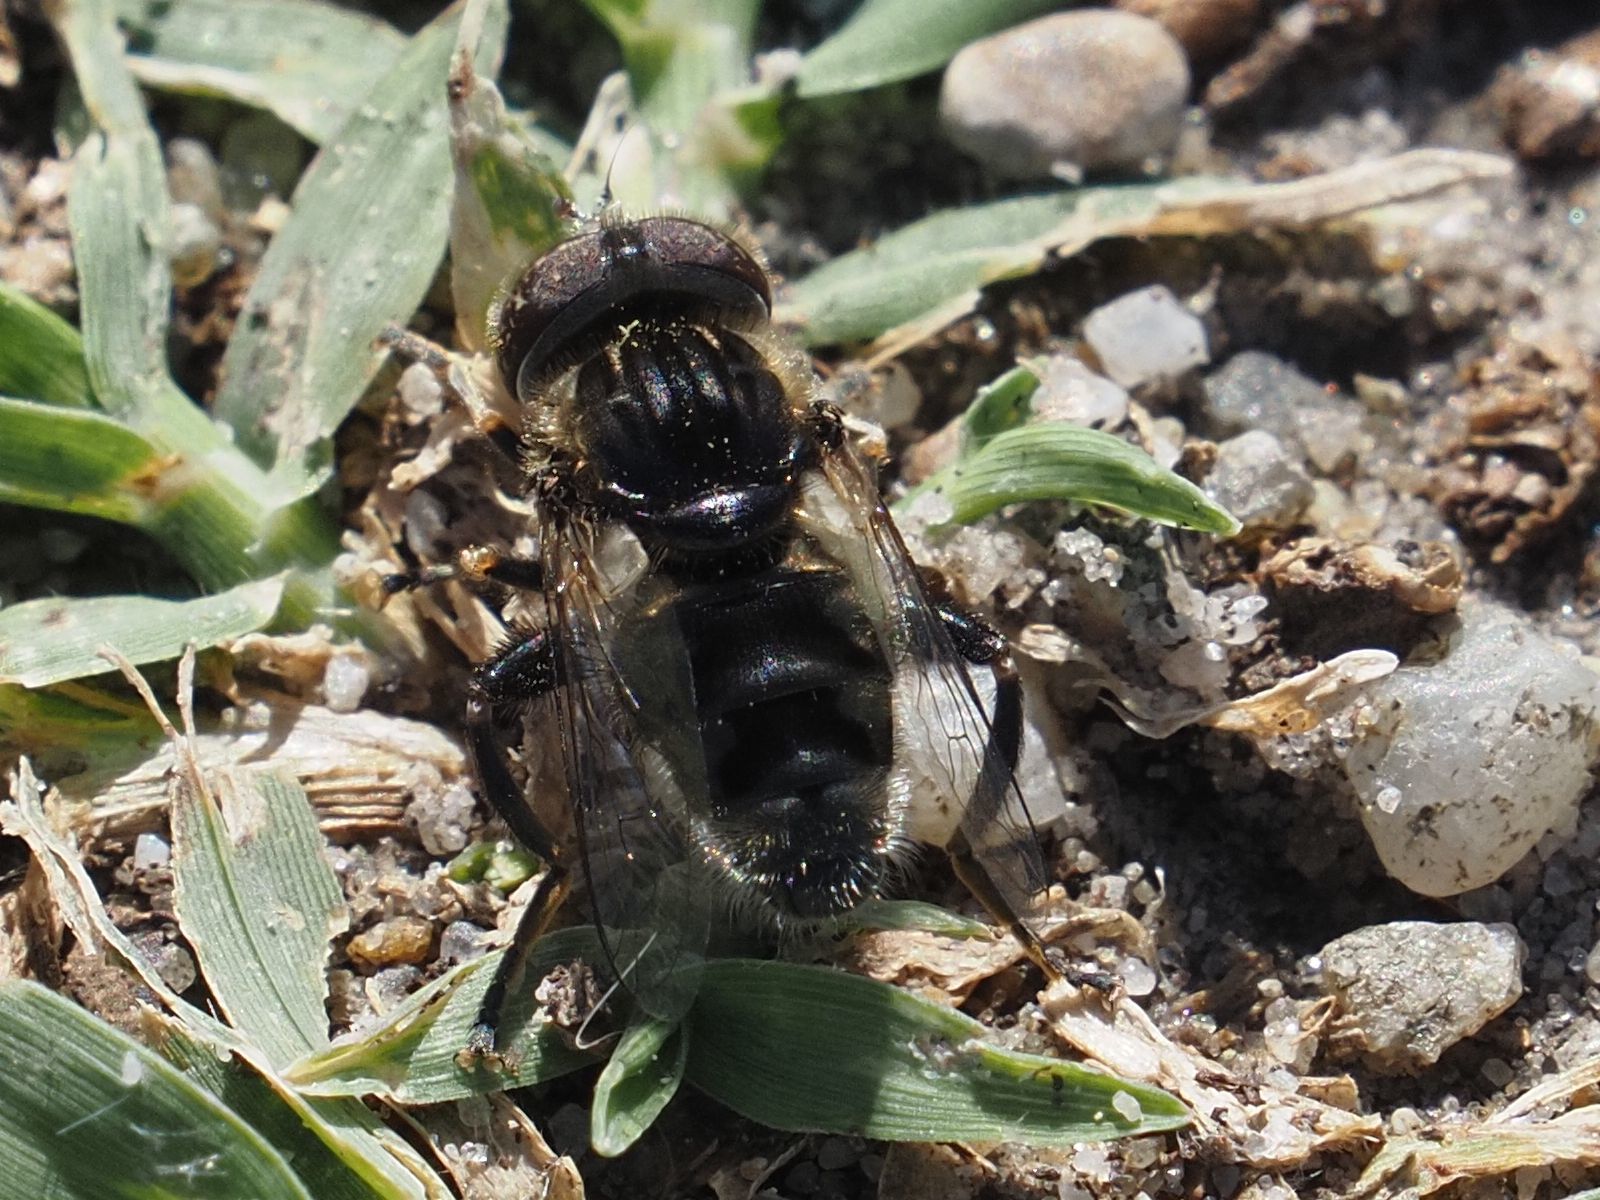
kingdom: Animalia
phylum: Arthropoda
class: Insecta
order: Diptera
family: Syrphidae
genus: Eristalinus
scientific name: Eristalinus sepulchralis
